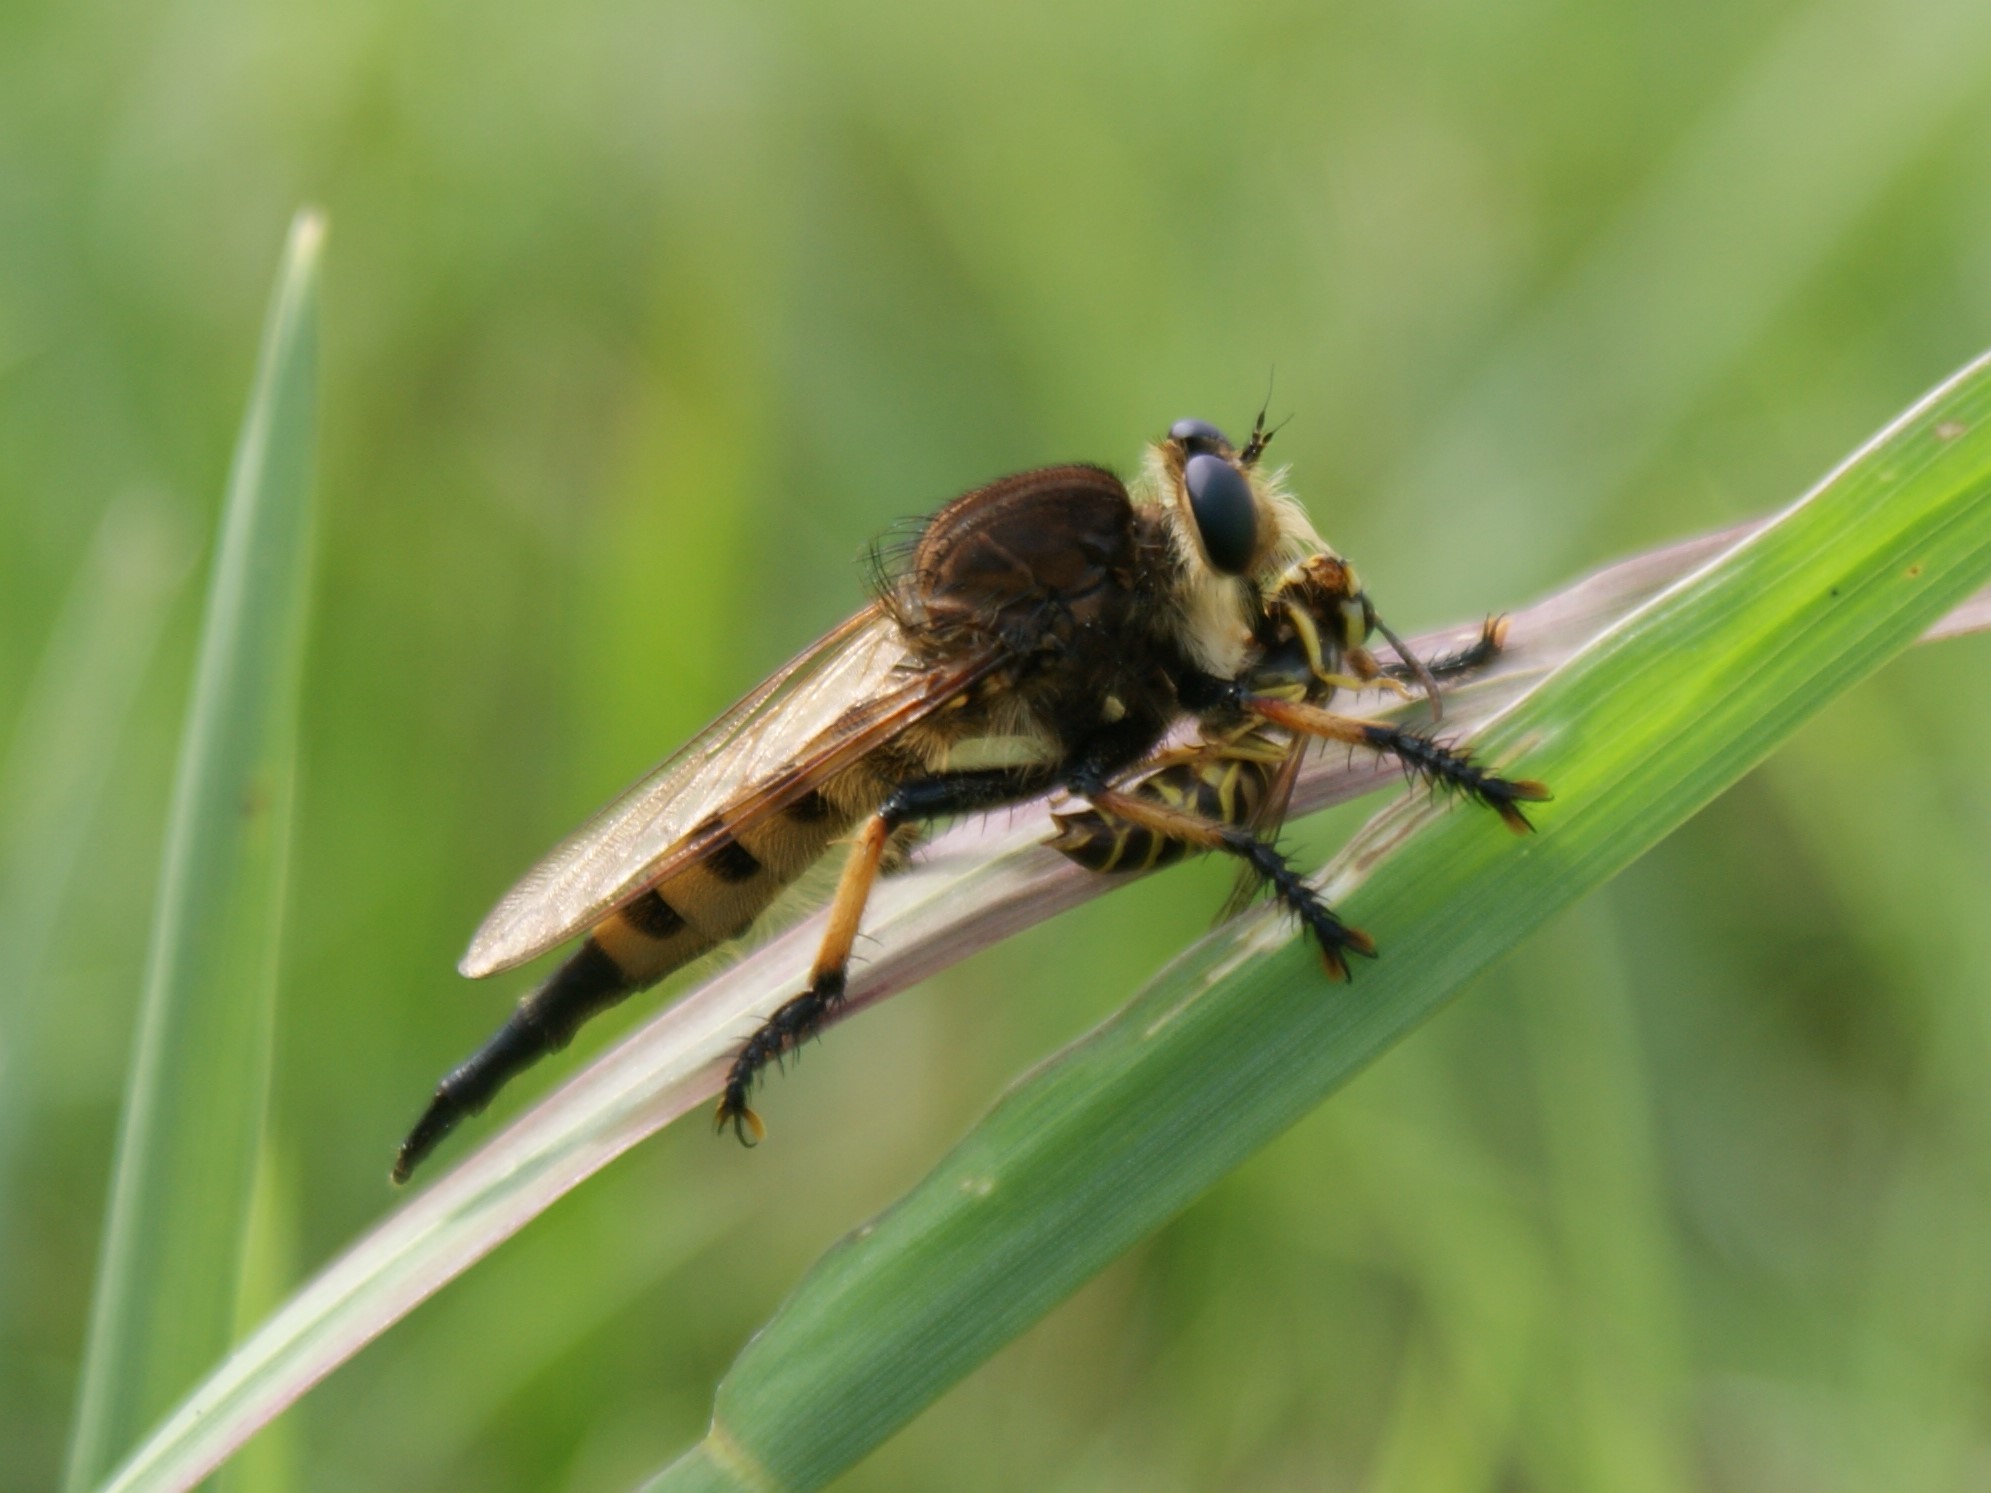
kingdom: Animalia
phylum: Arthropoda
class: Insecta
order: Diptera
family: Asilidae
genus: Promachus
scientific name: Promachus rufipes
